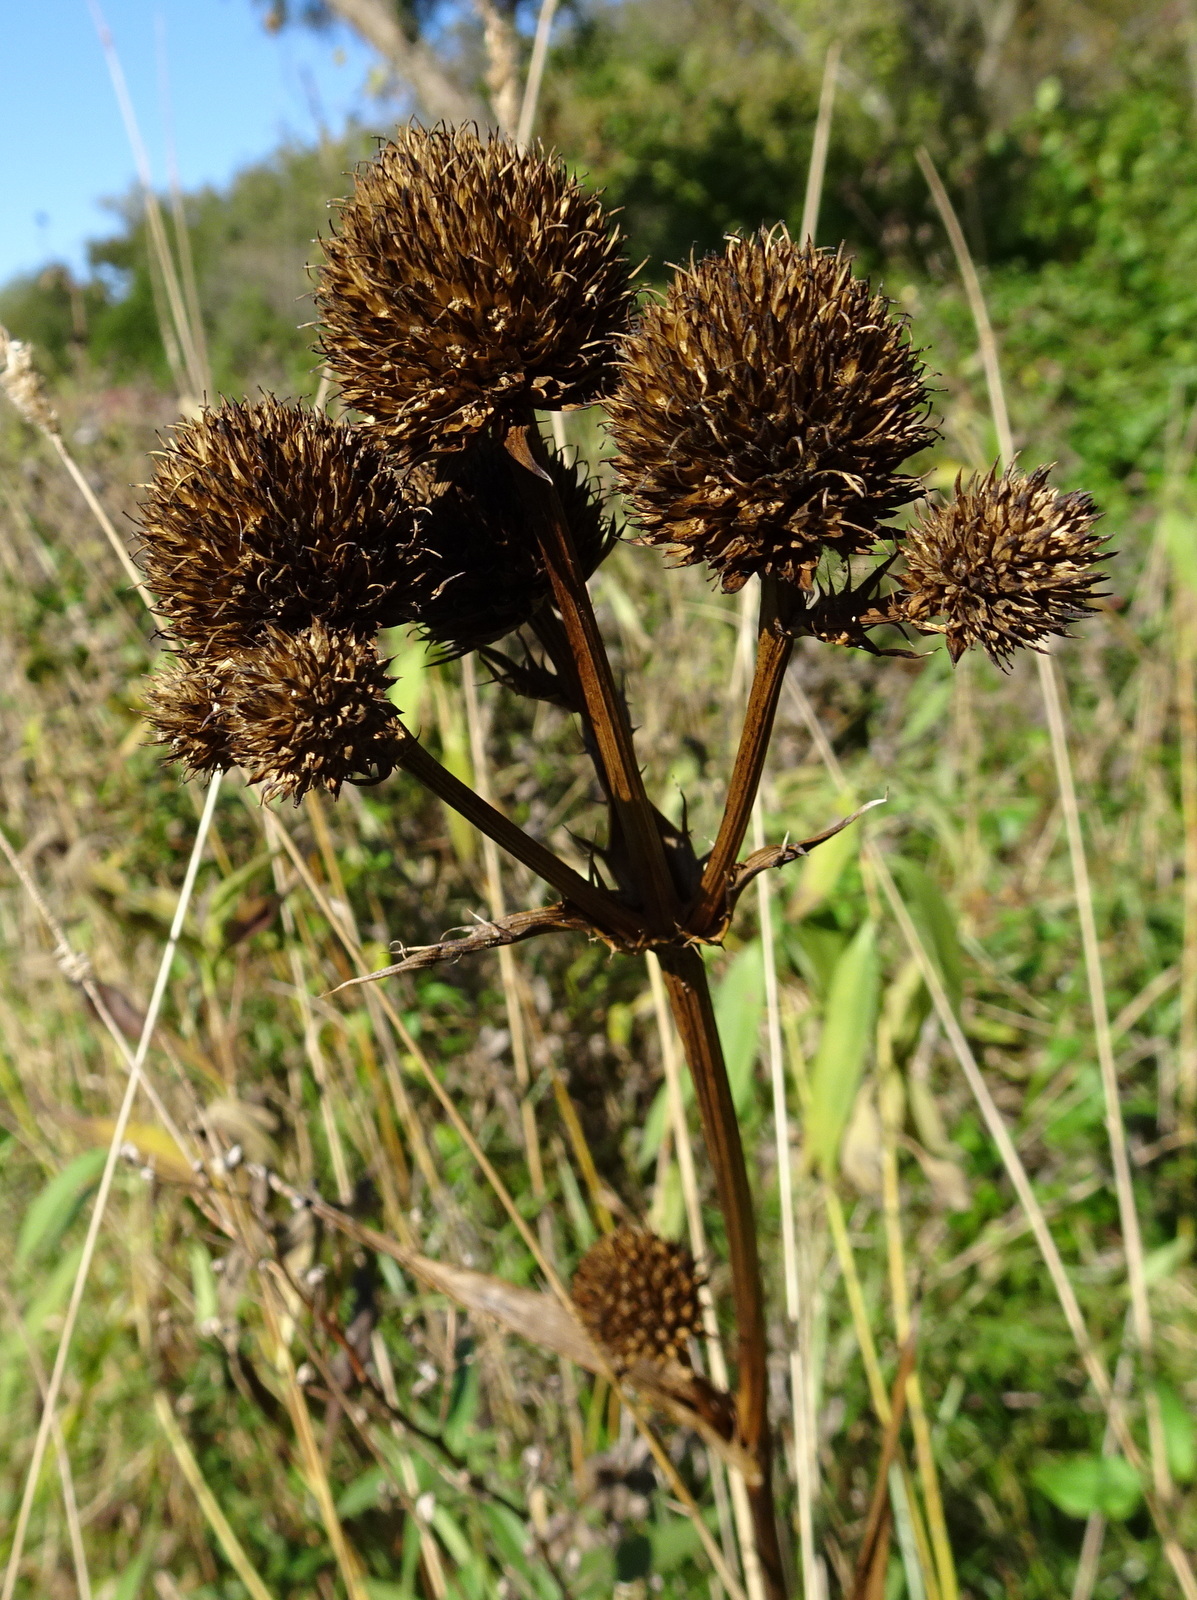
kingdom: Plantae
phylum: Tracheophyta
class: Magnoliopsida
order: Apiales
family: Apiaceae
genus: Eryngium
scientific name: Eryngium yuccifolium
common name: Button eryngo
